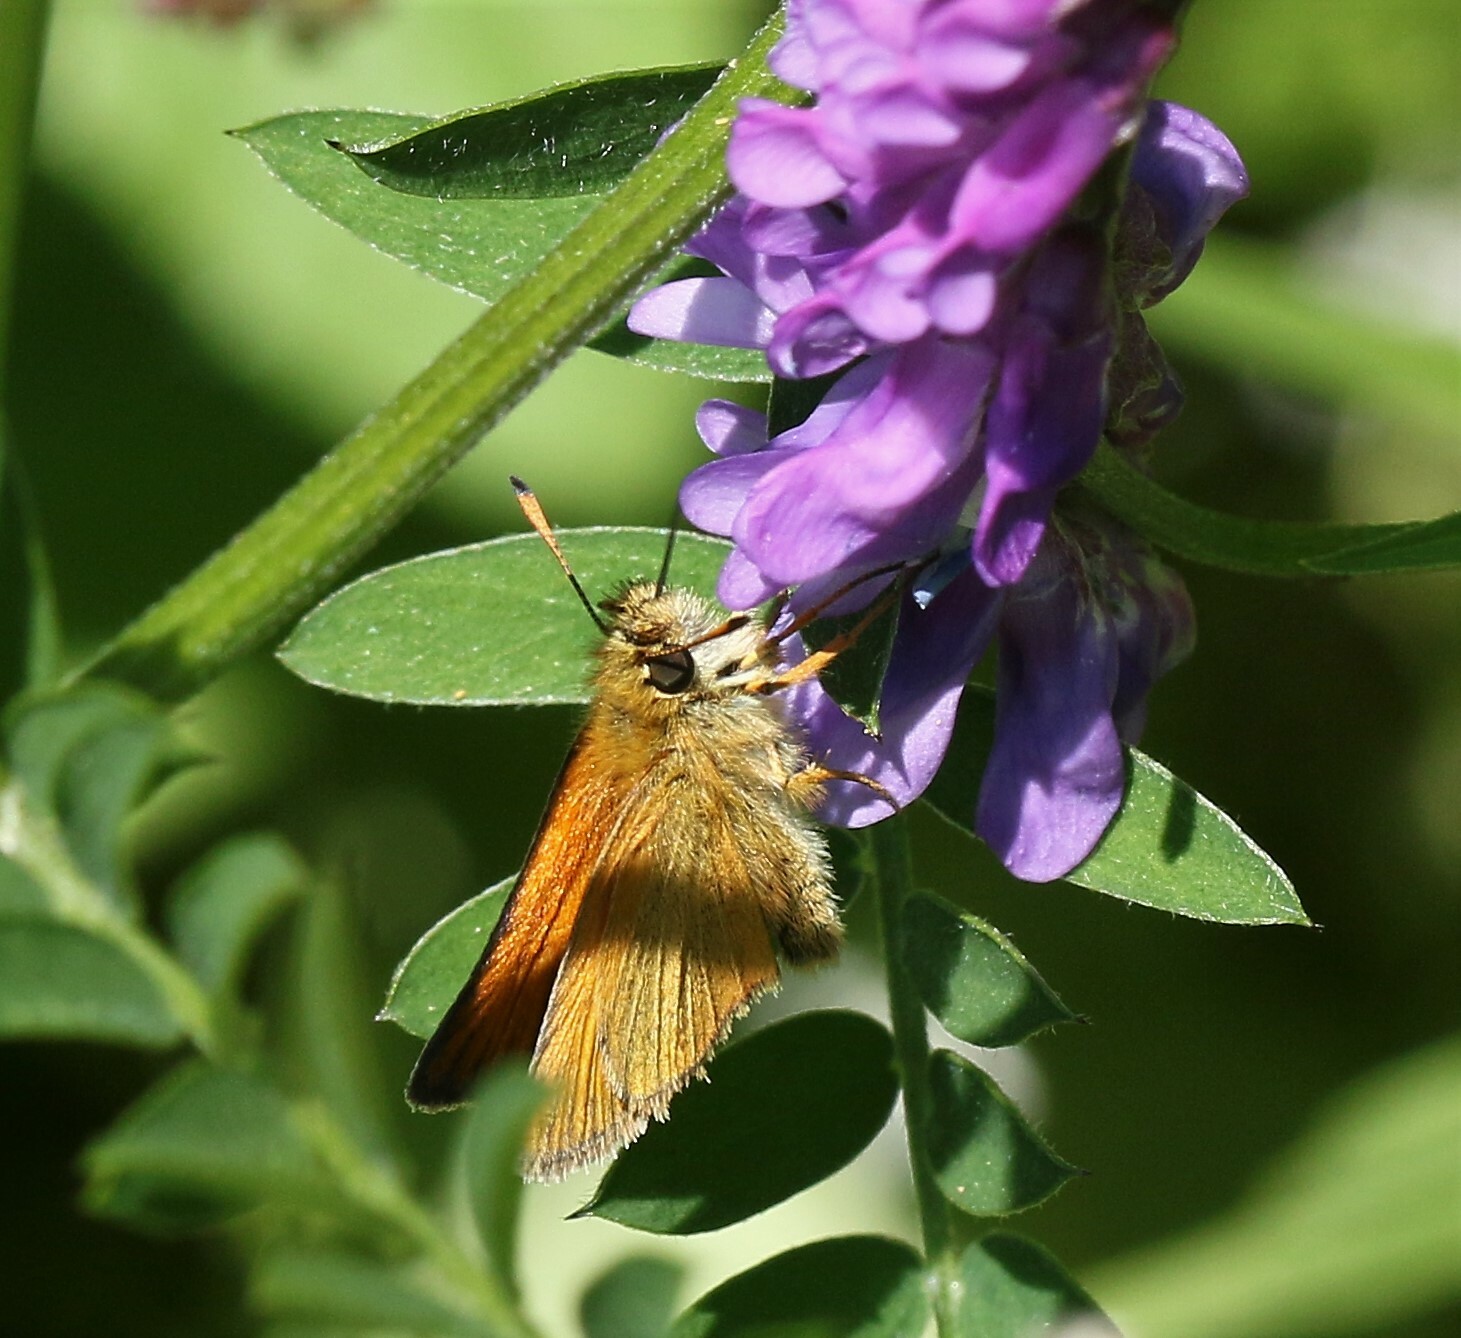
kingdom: Animalia
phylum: Arthropoda
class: Insecta
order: Lepidoptera
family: Hesperiidae
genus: Thymelicus
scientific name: Thymelicus lineola
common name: Essex skipper
